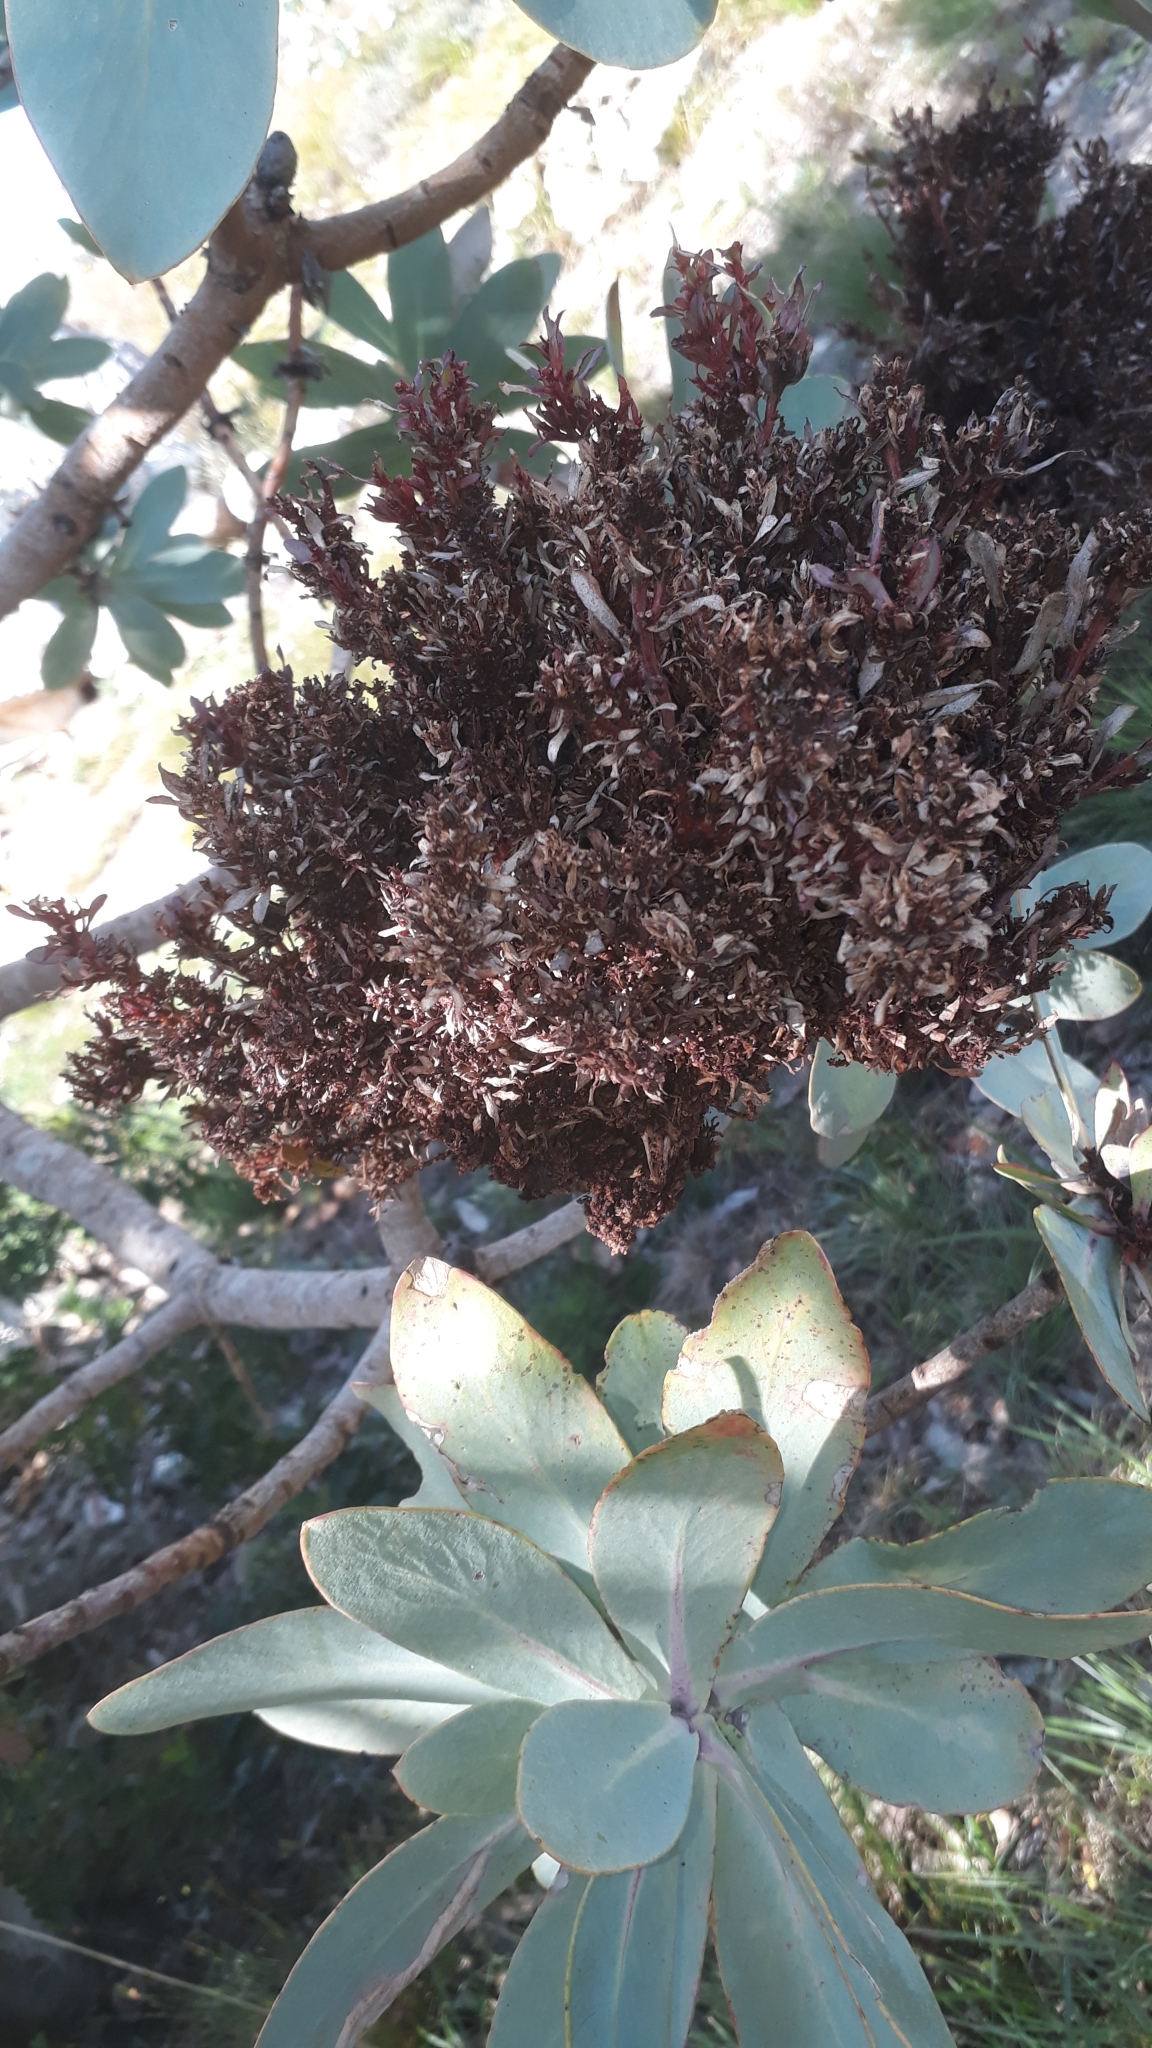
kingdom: Bacteria
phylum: Firmicutes
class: Bacilli
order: Acholeplasmatales
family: Acholeplasmataceae
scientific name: Acholeplasmataceae
